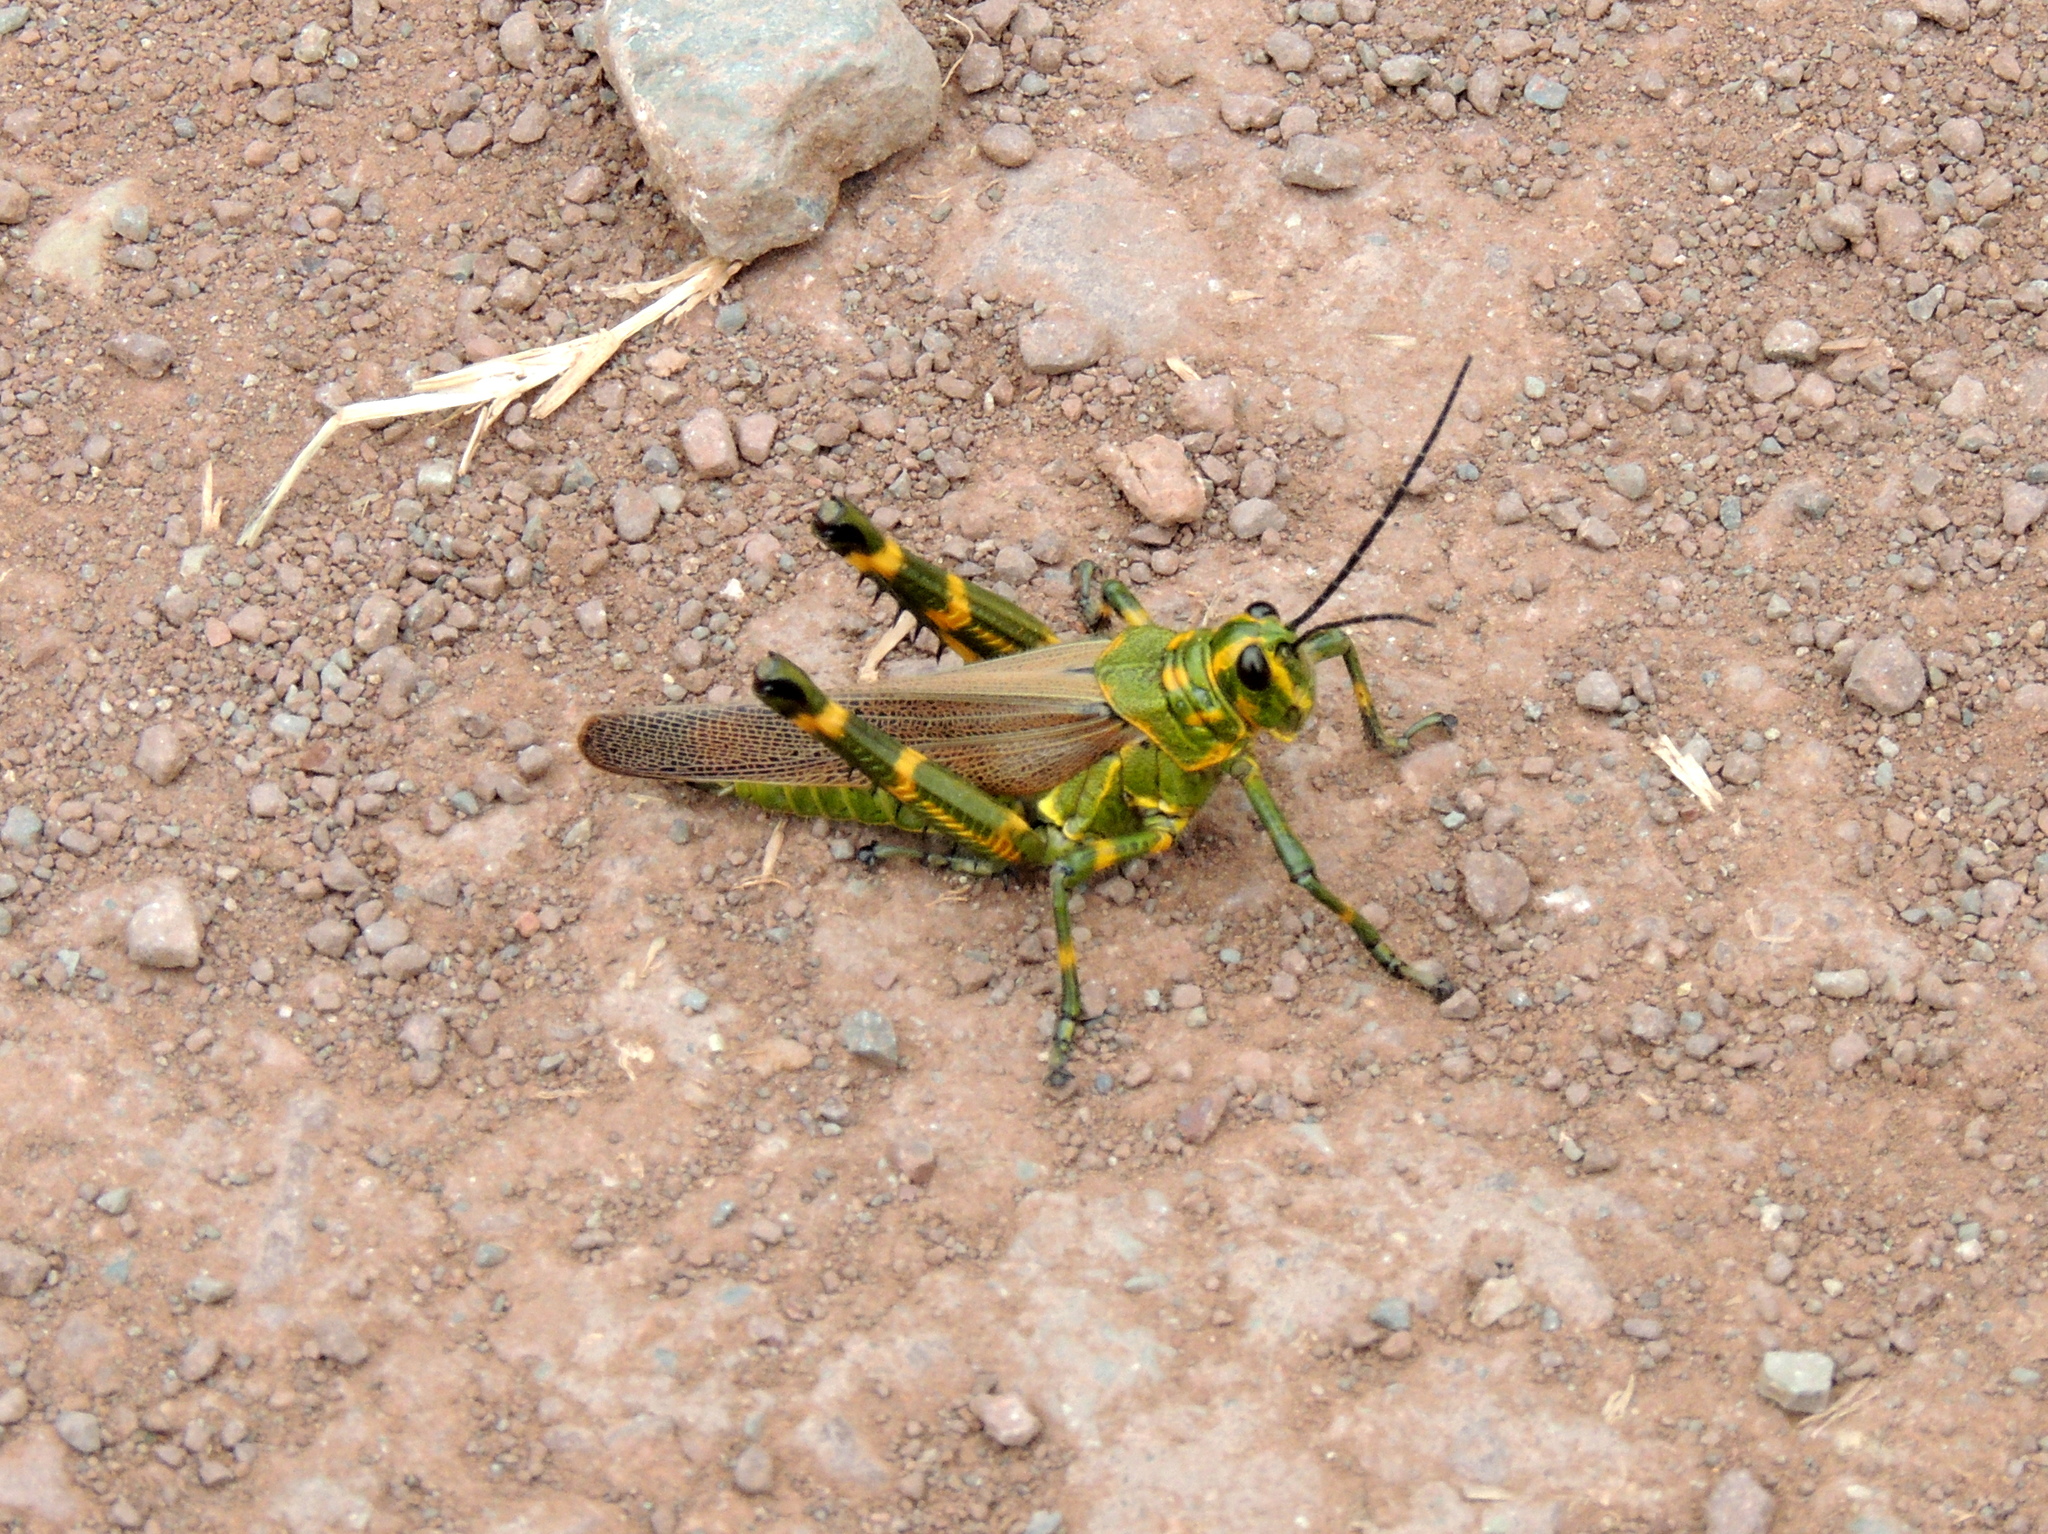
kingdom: Animalia
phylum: Arthropoda
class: Insecta
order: Orthoptera
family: Romaleidae
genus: Chromacris
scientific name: Chromacris speciosa
